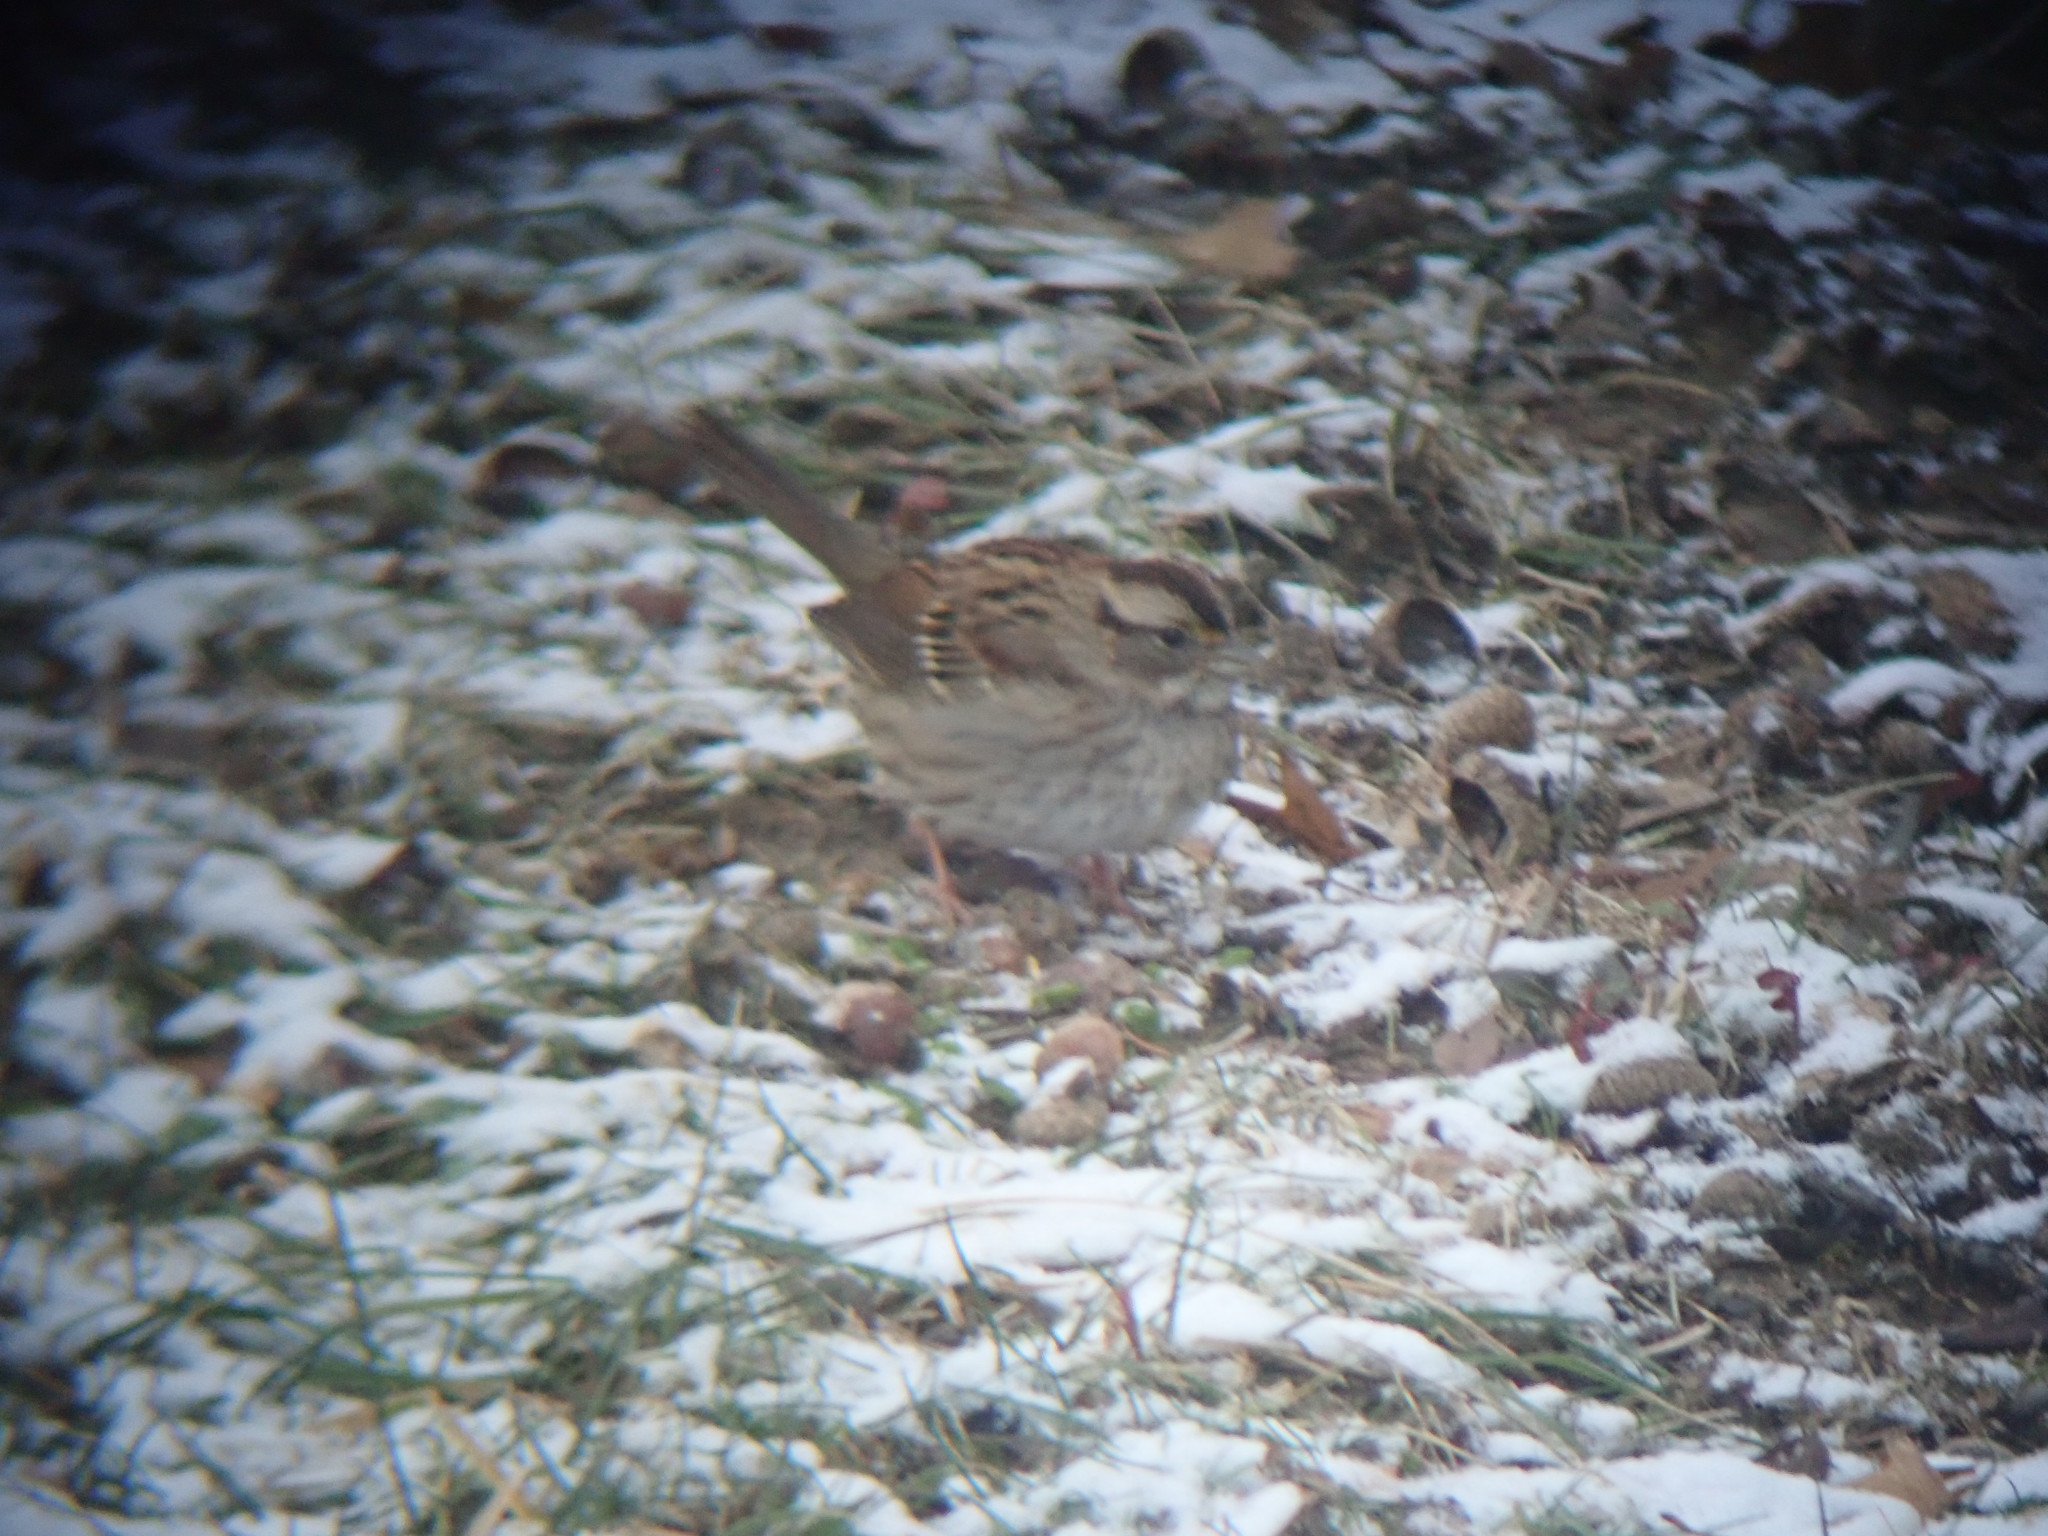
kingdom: Animalia
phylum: Chordata
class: Aves
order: Passeriformes
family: Passerellidae
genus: Zonotrichia
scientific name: Zonotrichia albicollis
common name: White-throated sparrow
